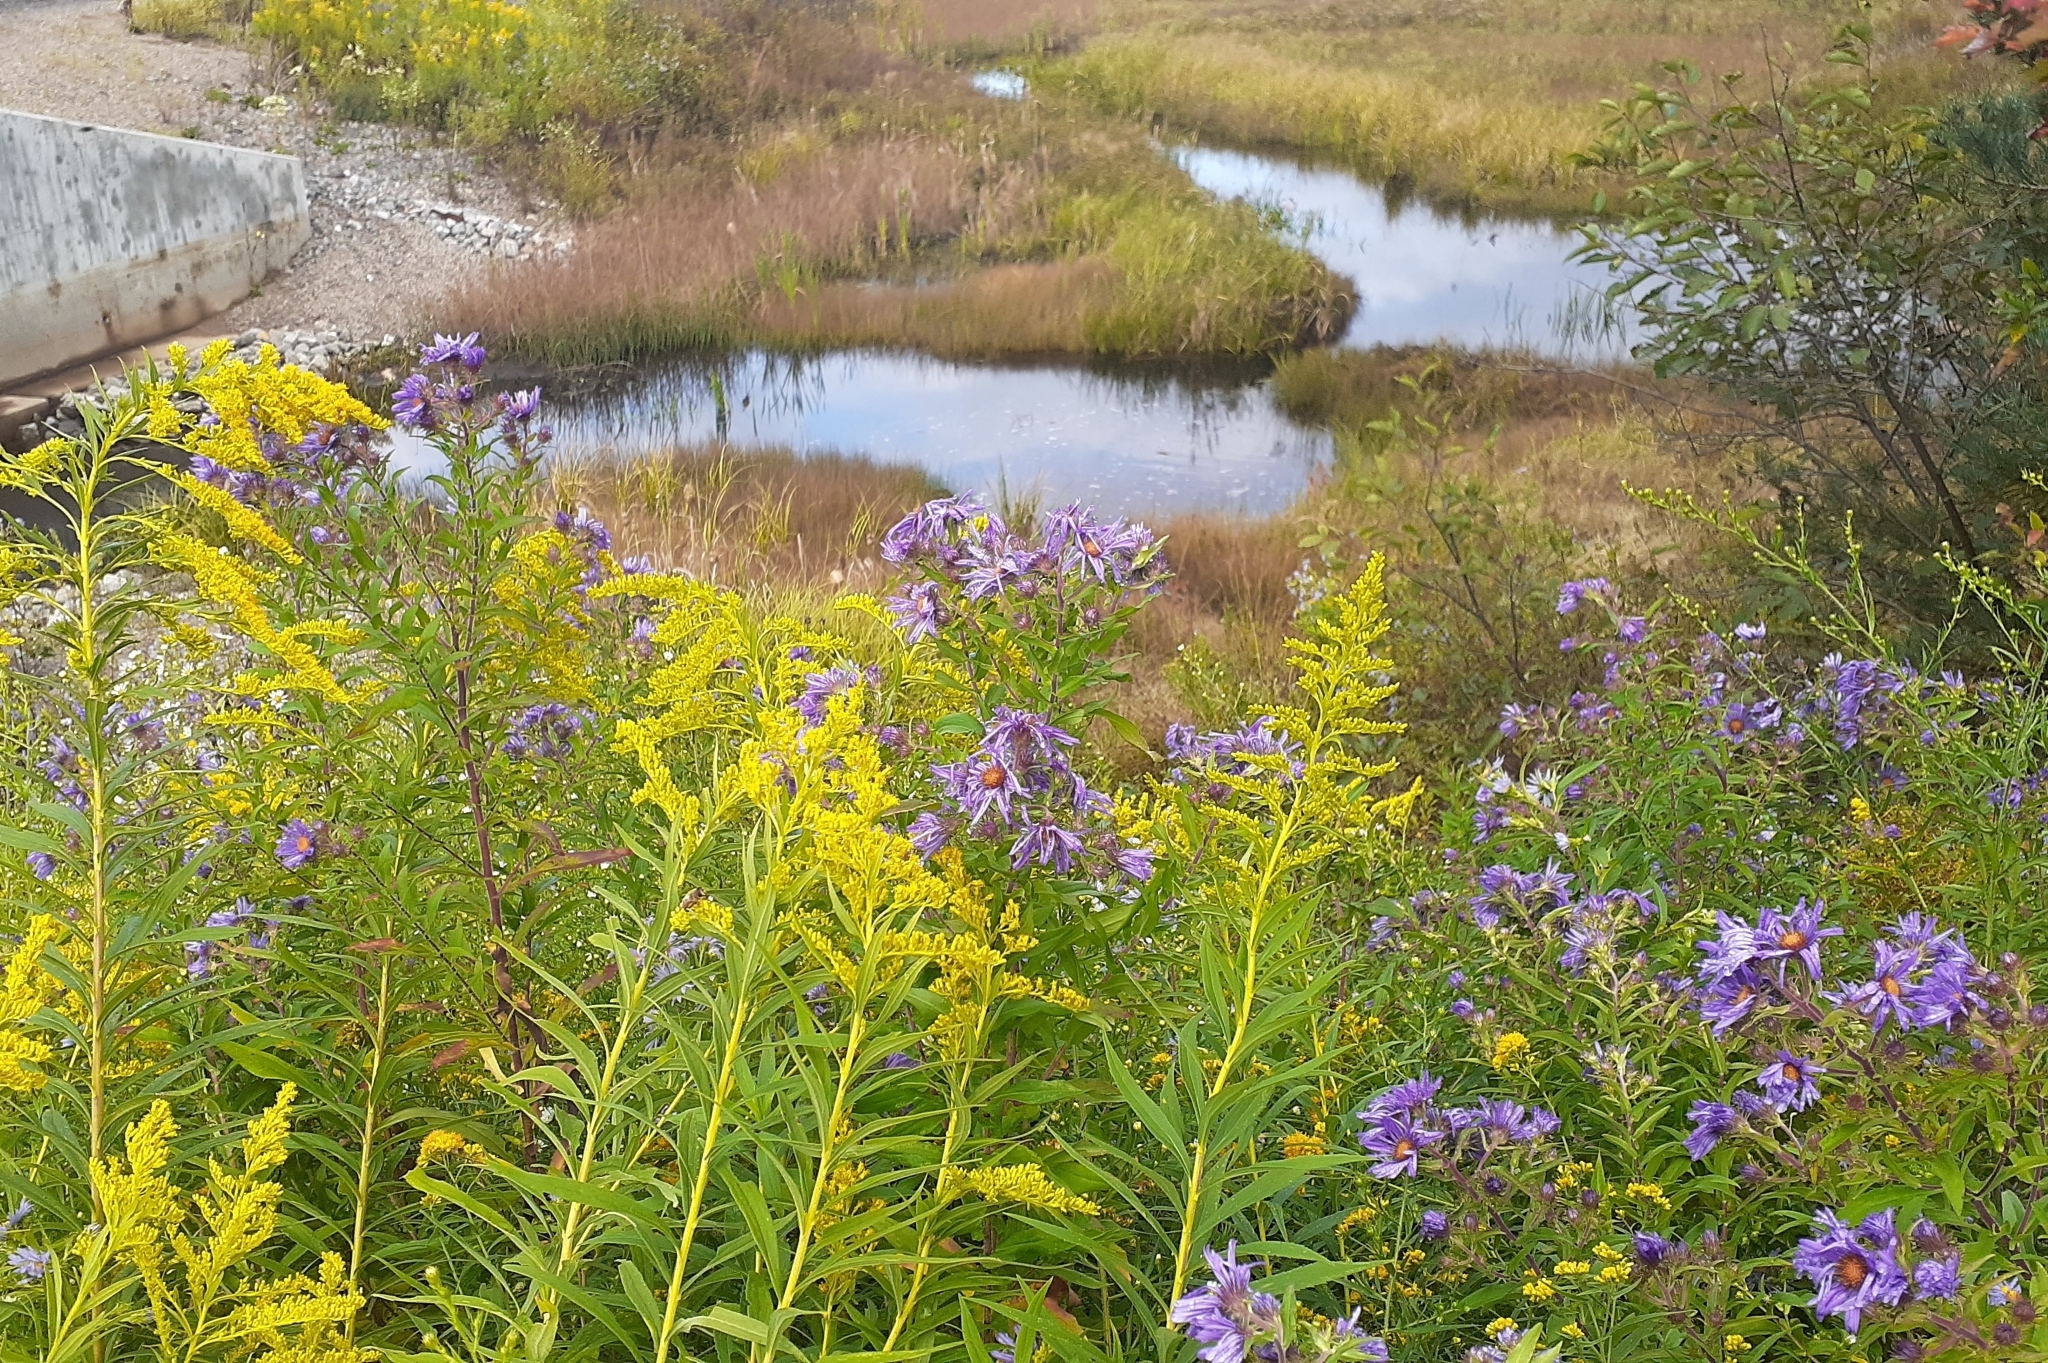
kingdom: Plantae
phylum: Tracheophyta
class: Magnoliopsida
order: Asterales
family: Asteraceae
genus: Symphyotrichum
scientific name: Symphyotrichum novae-angliae
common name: Michaelmas daisy
